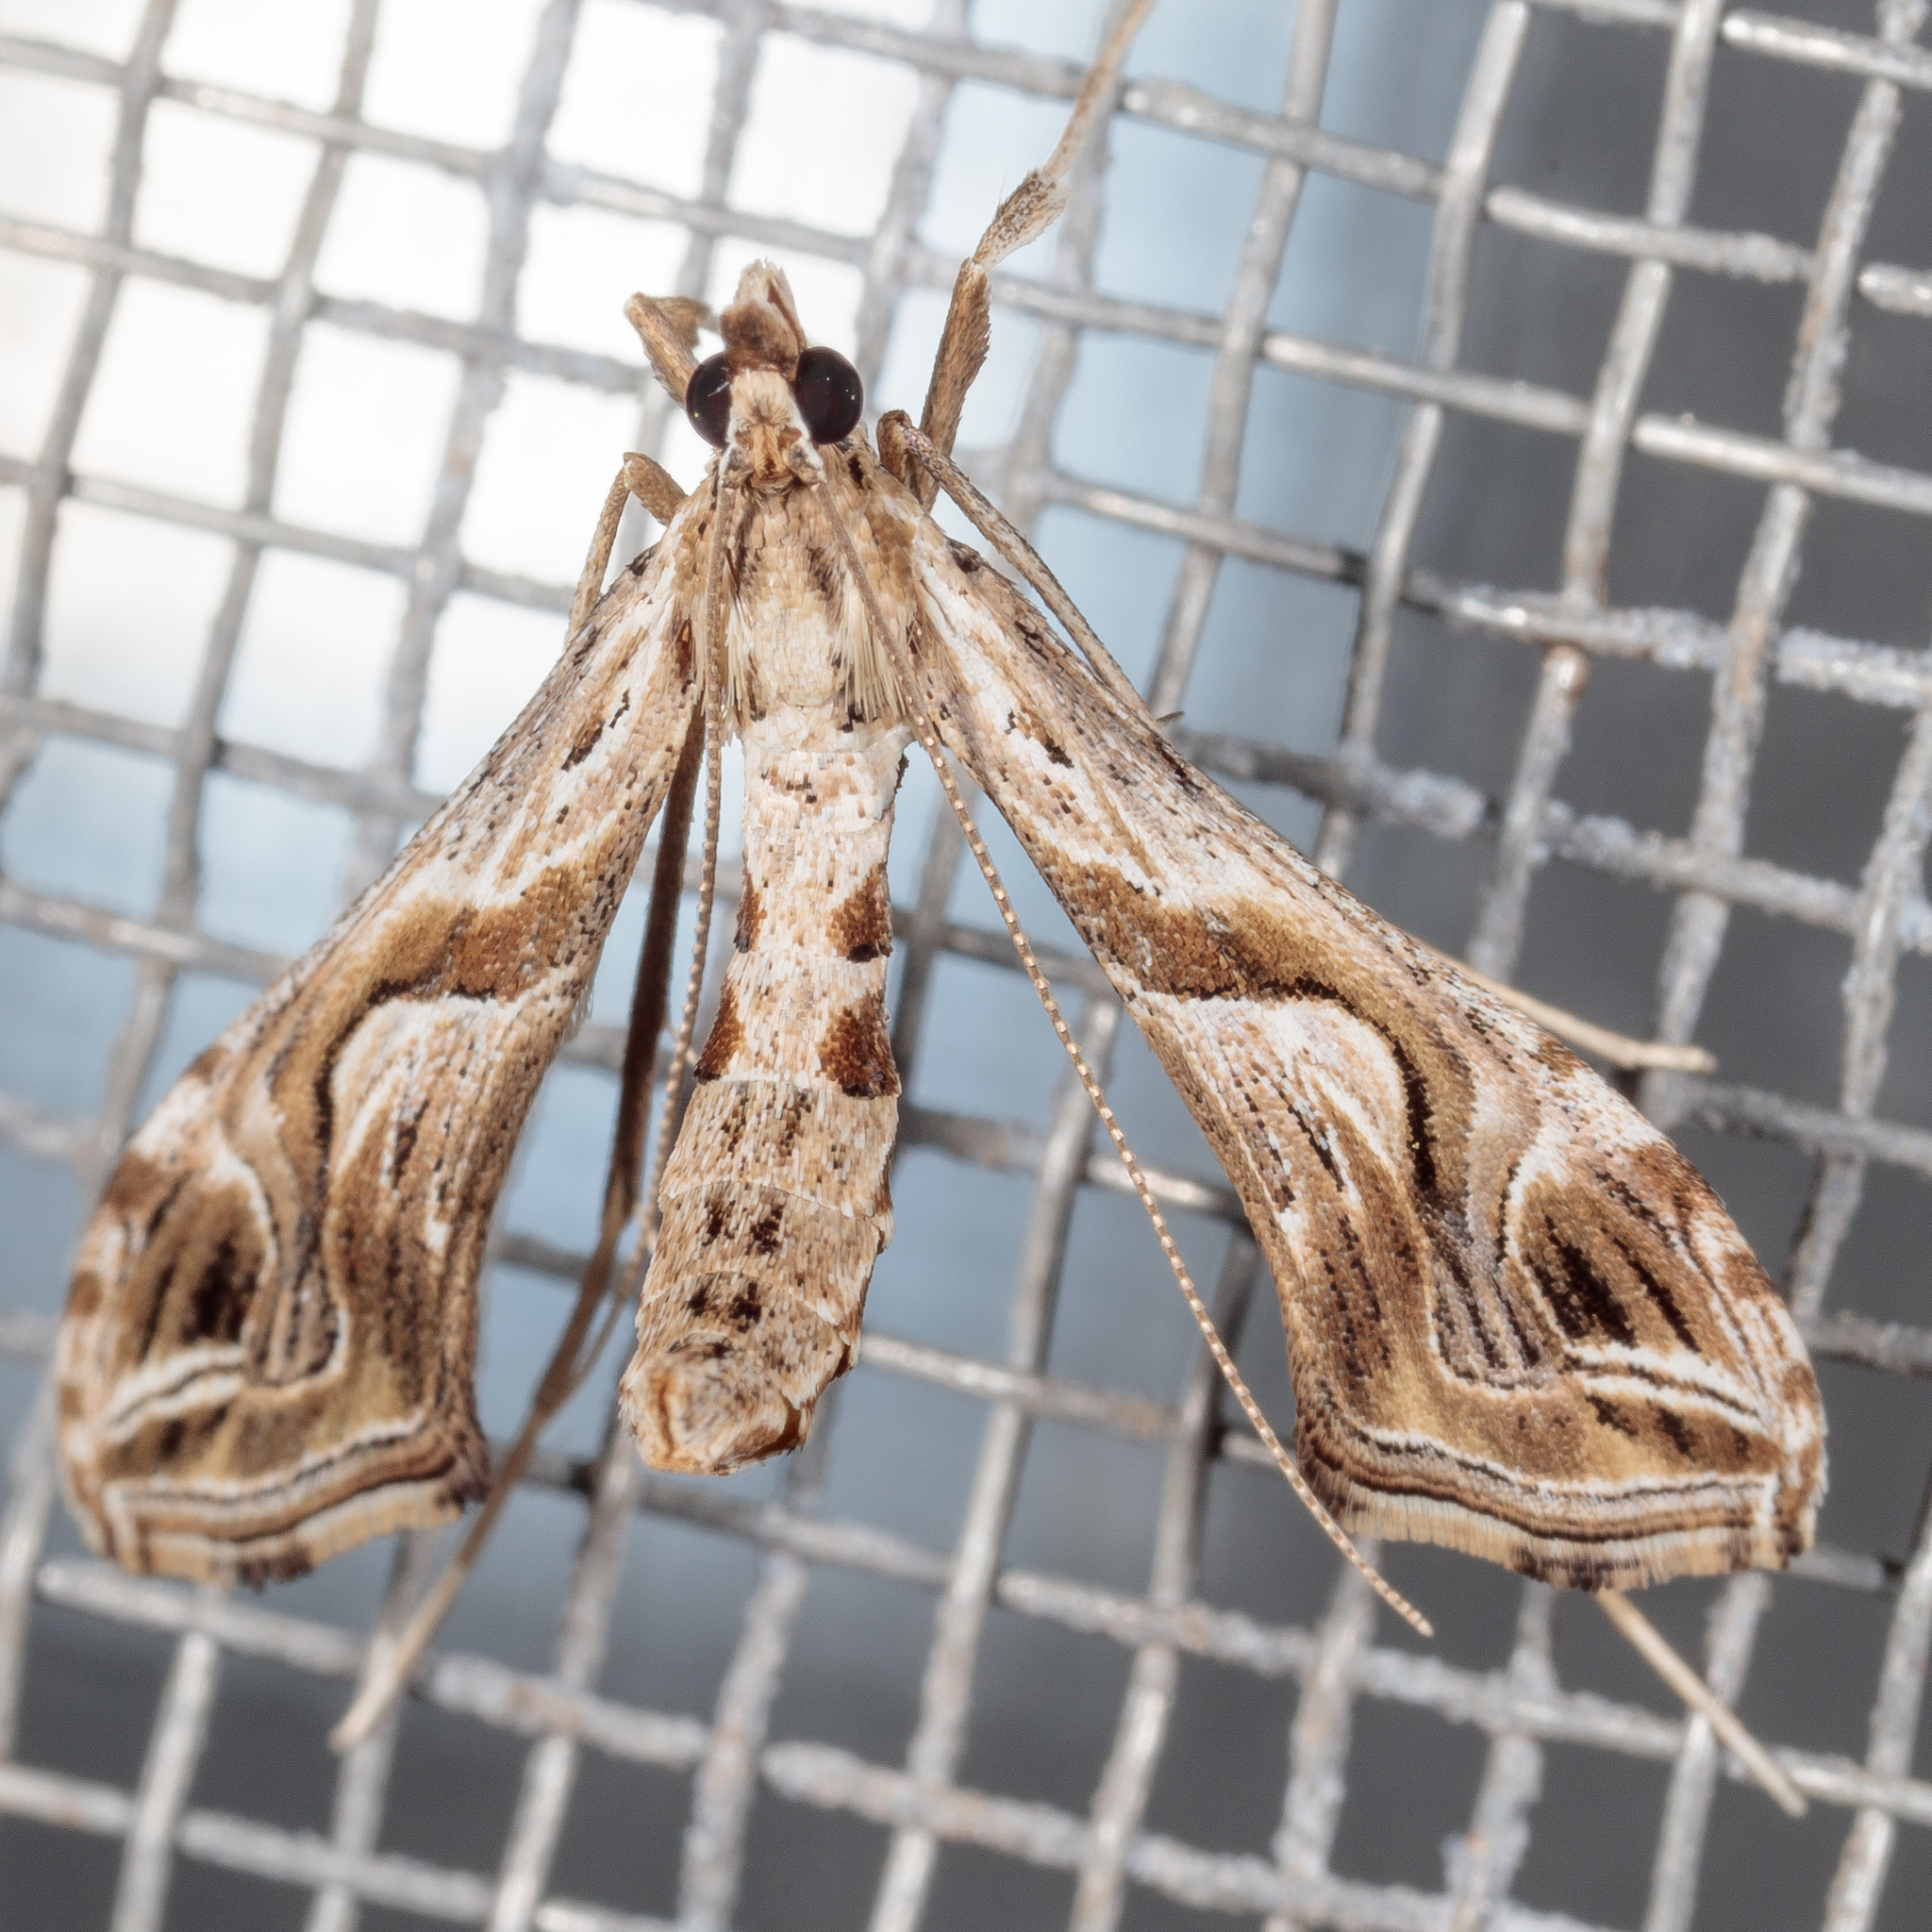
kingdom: Animalia
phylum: Arthropoda
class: Insecta
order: Lepidoptera
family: Crambidae
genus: Lineodes
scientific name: Lineodes integra
